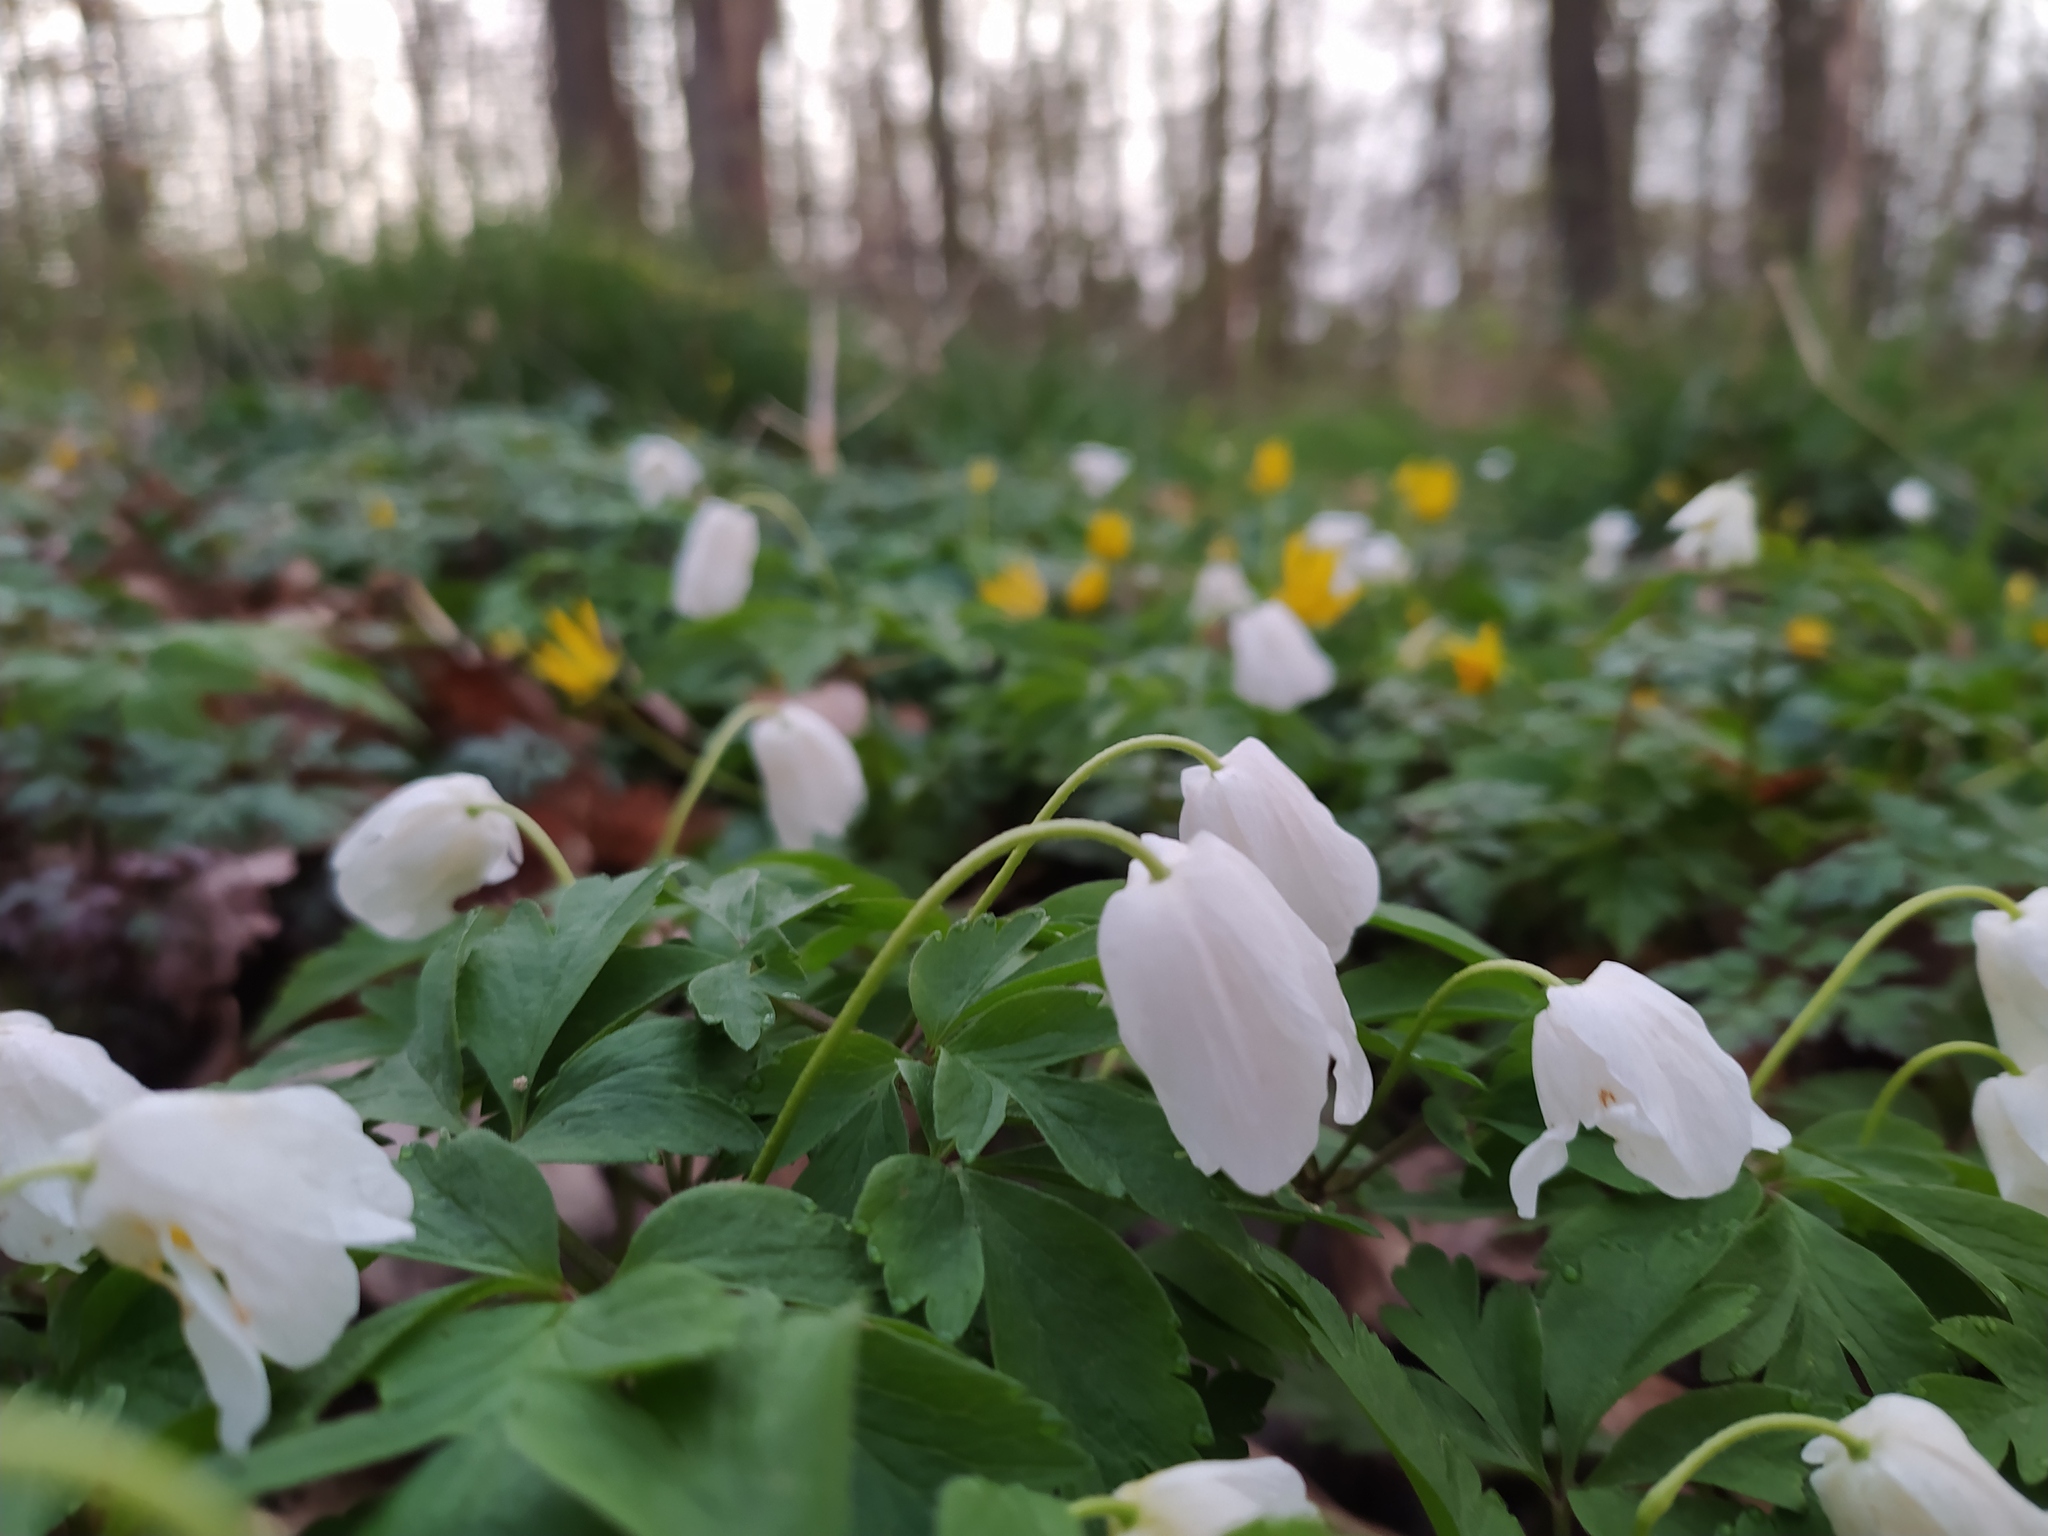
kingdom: Plantae
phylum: Tracheophyta
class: Magnoliopsida
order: Ranunculales
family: Ranunculaceae
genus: Anemone
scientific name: Anemone nemorosa
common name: Wood anemone
